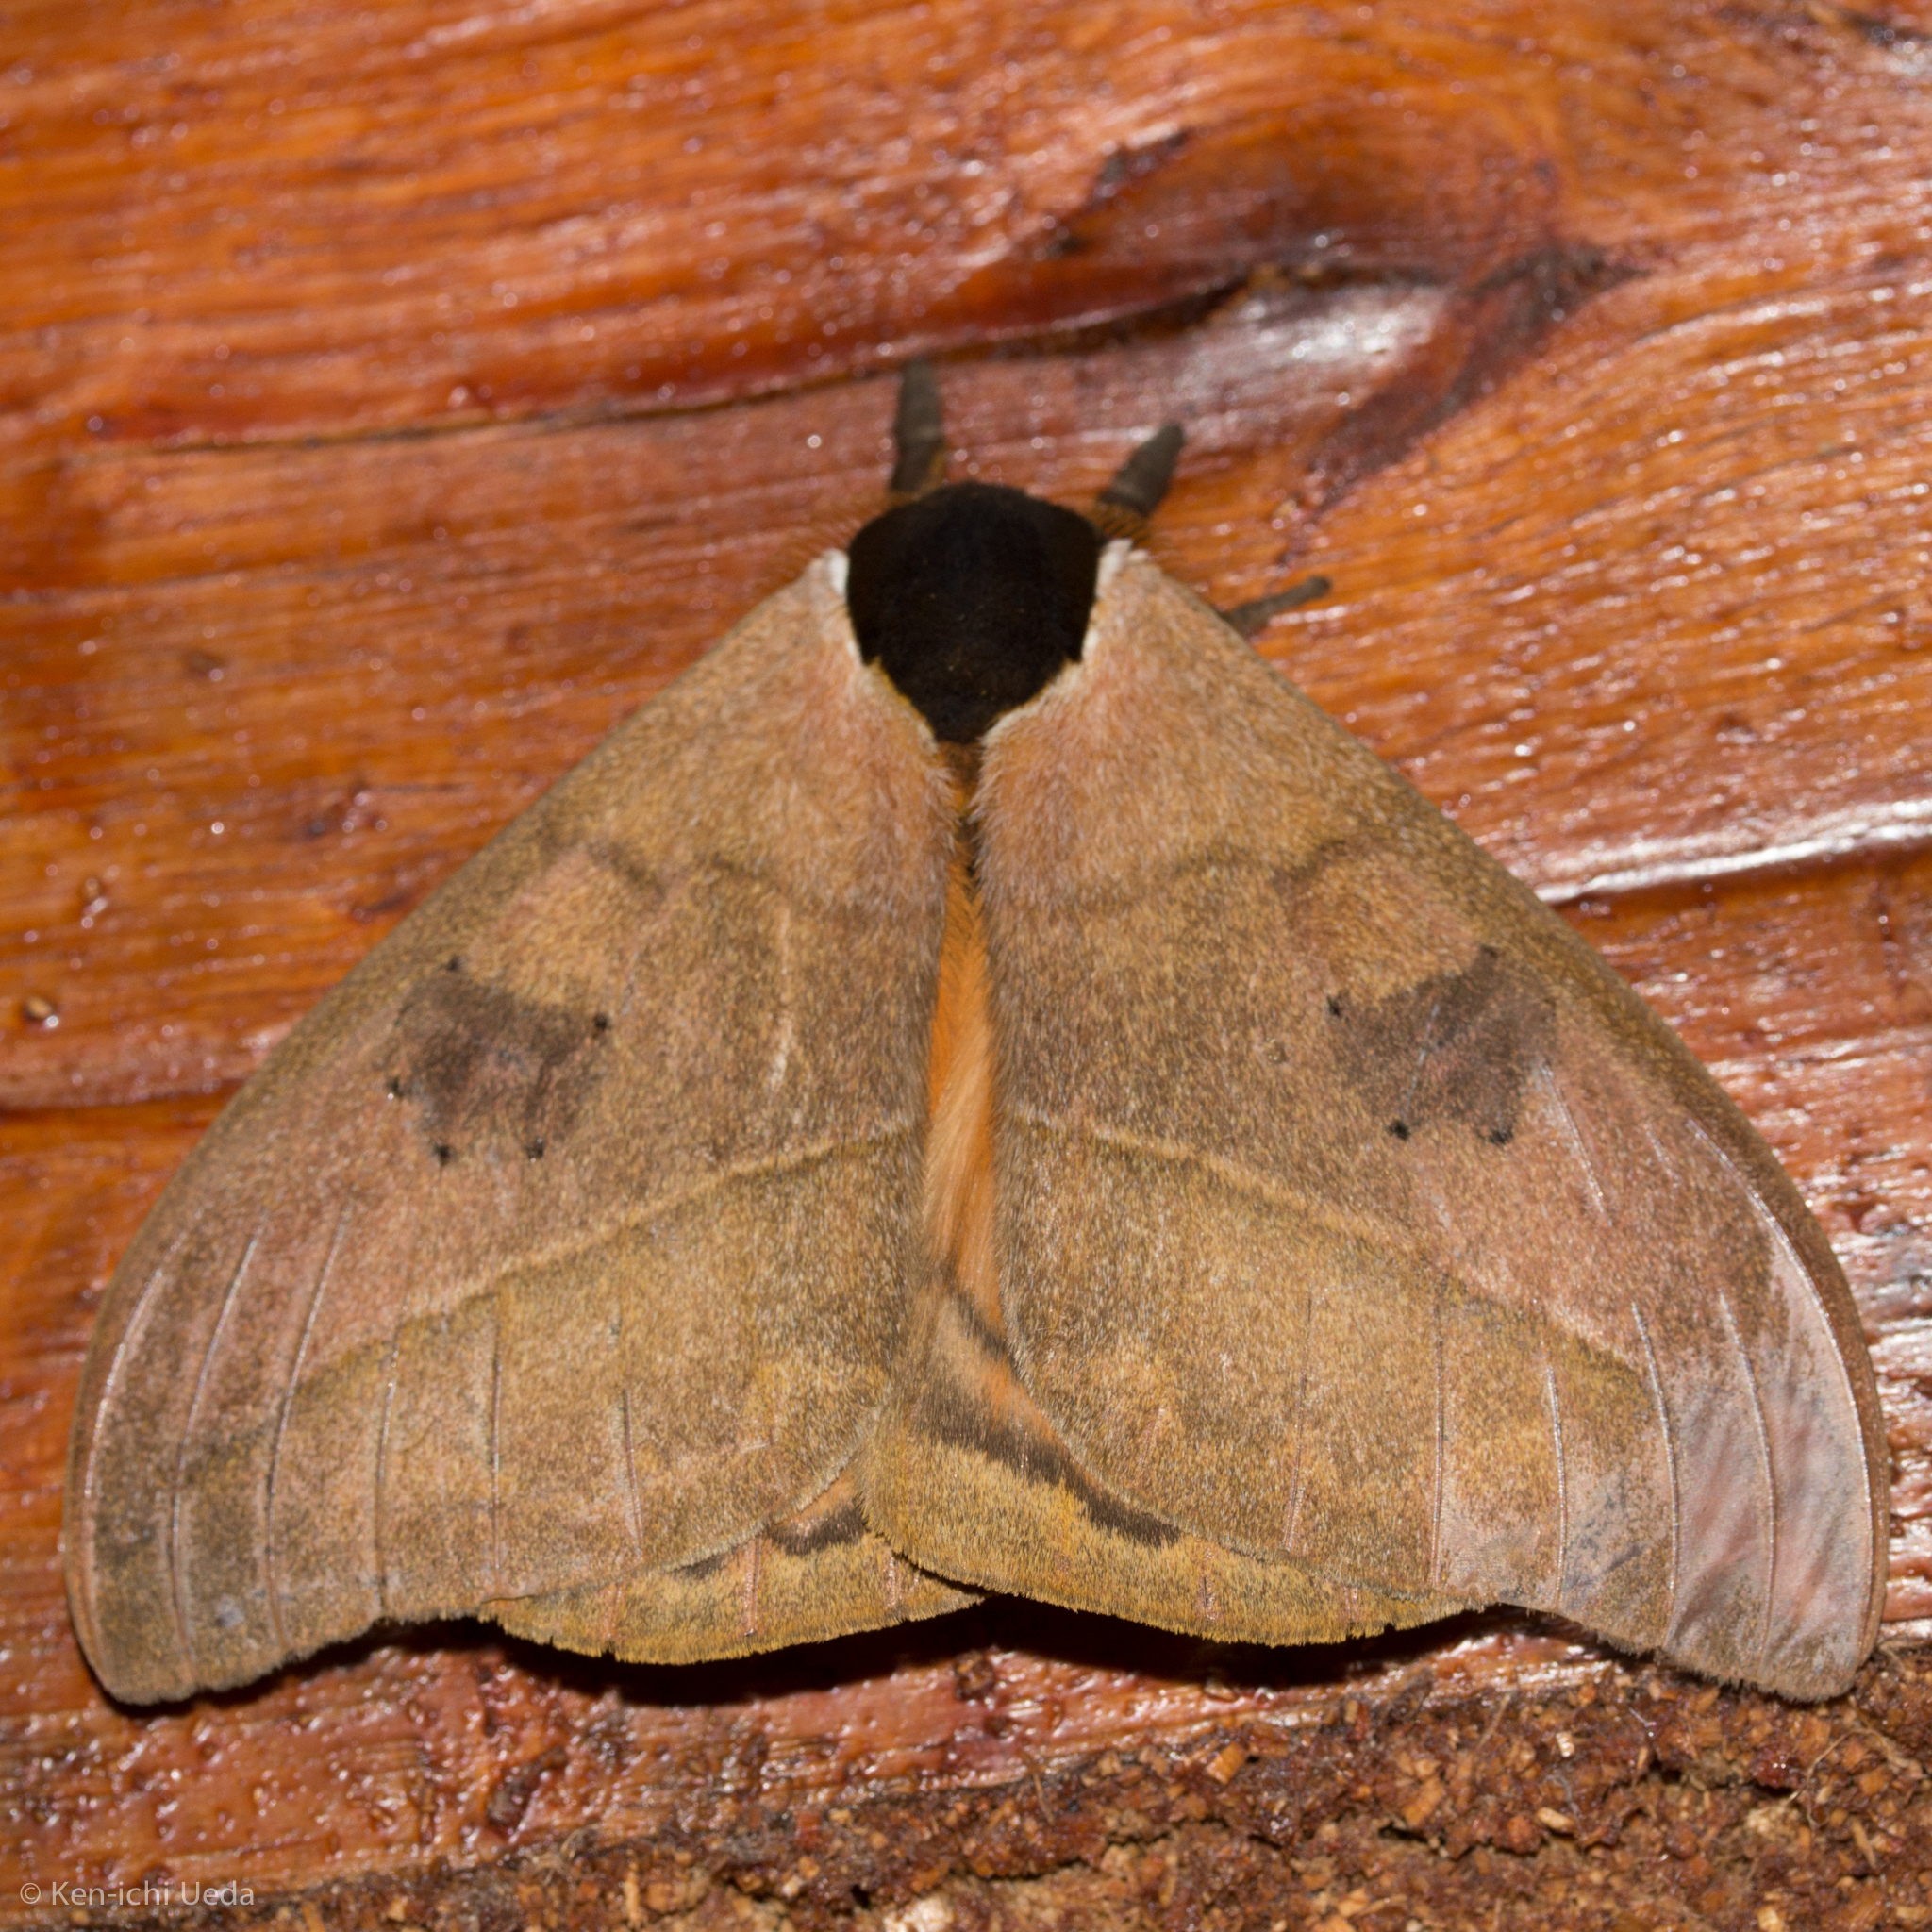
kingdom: Animalia
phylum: Arthropoda
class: Insecta
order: Lepidoptera
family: Saturniidae
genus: Automeris
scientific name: Automeris abdominalis
